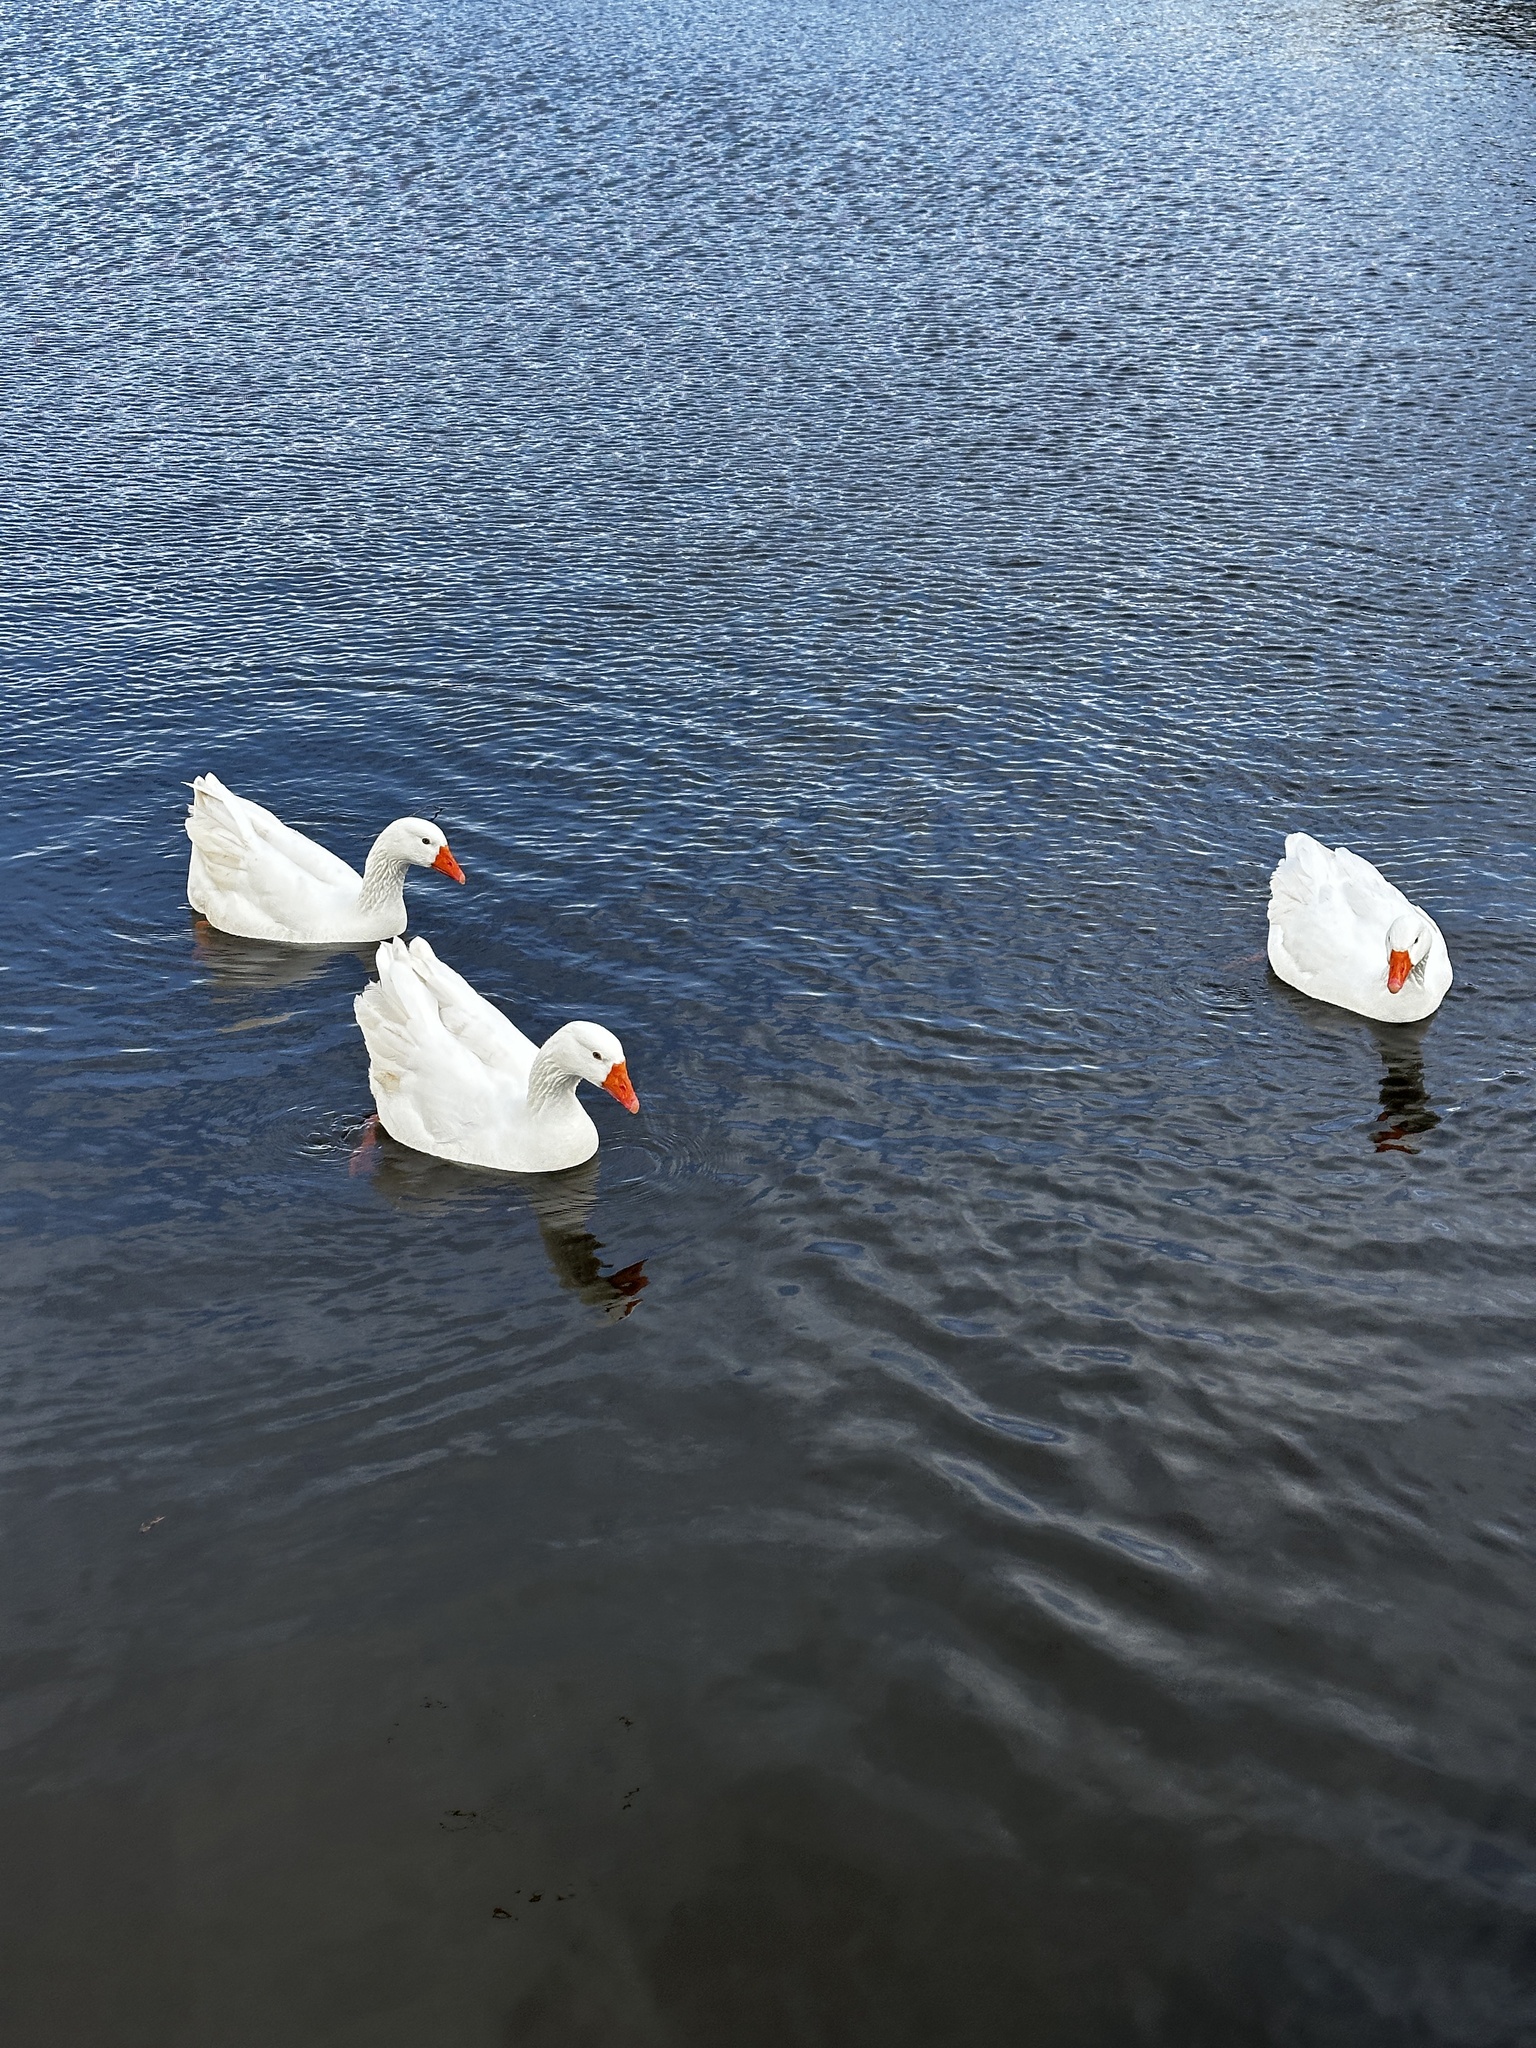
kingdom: Animalia
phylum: Chordata
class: Aves
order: Anseriformes
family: Anatidae
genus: Anser
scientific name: Anser anser
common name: Greylag goose
